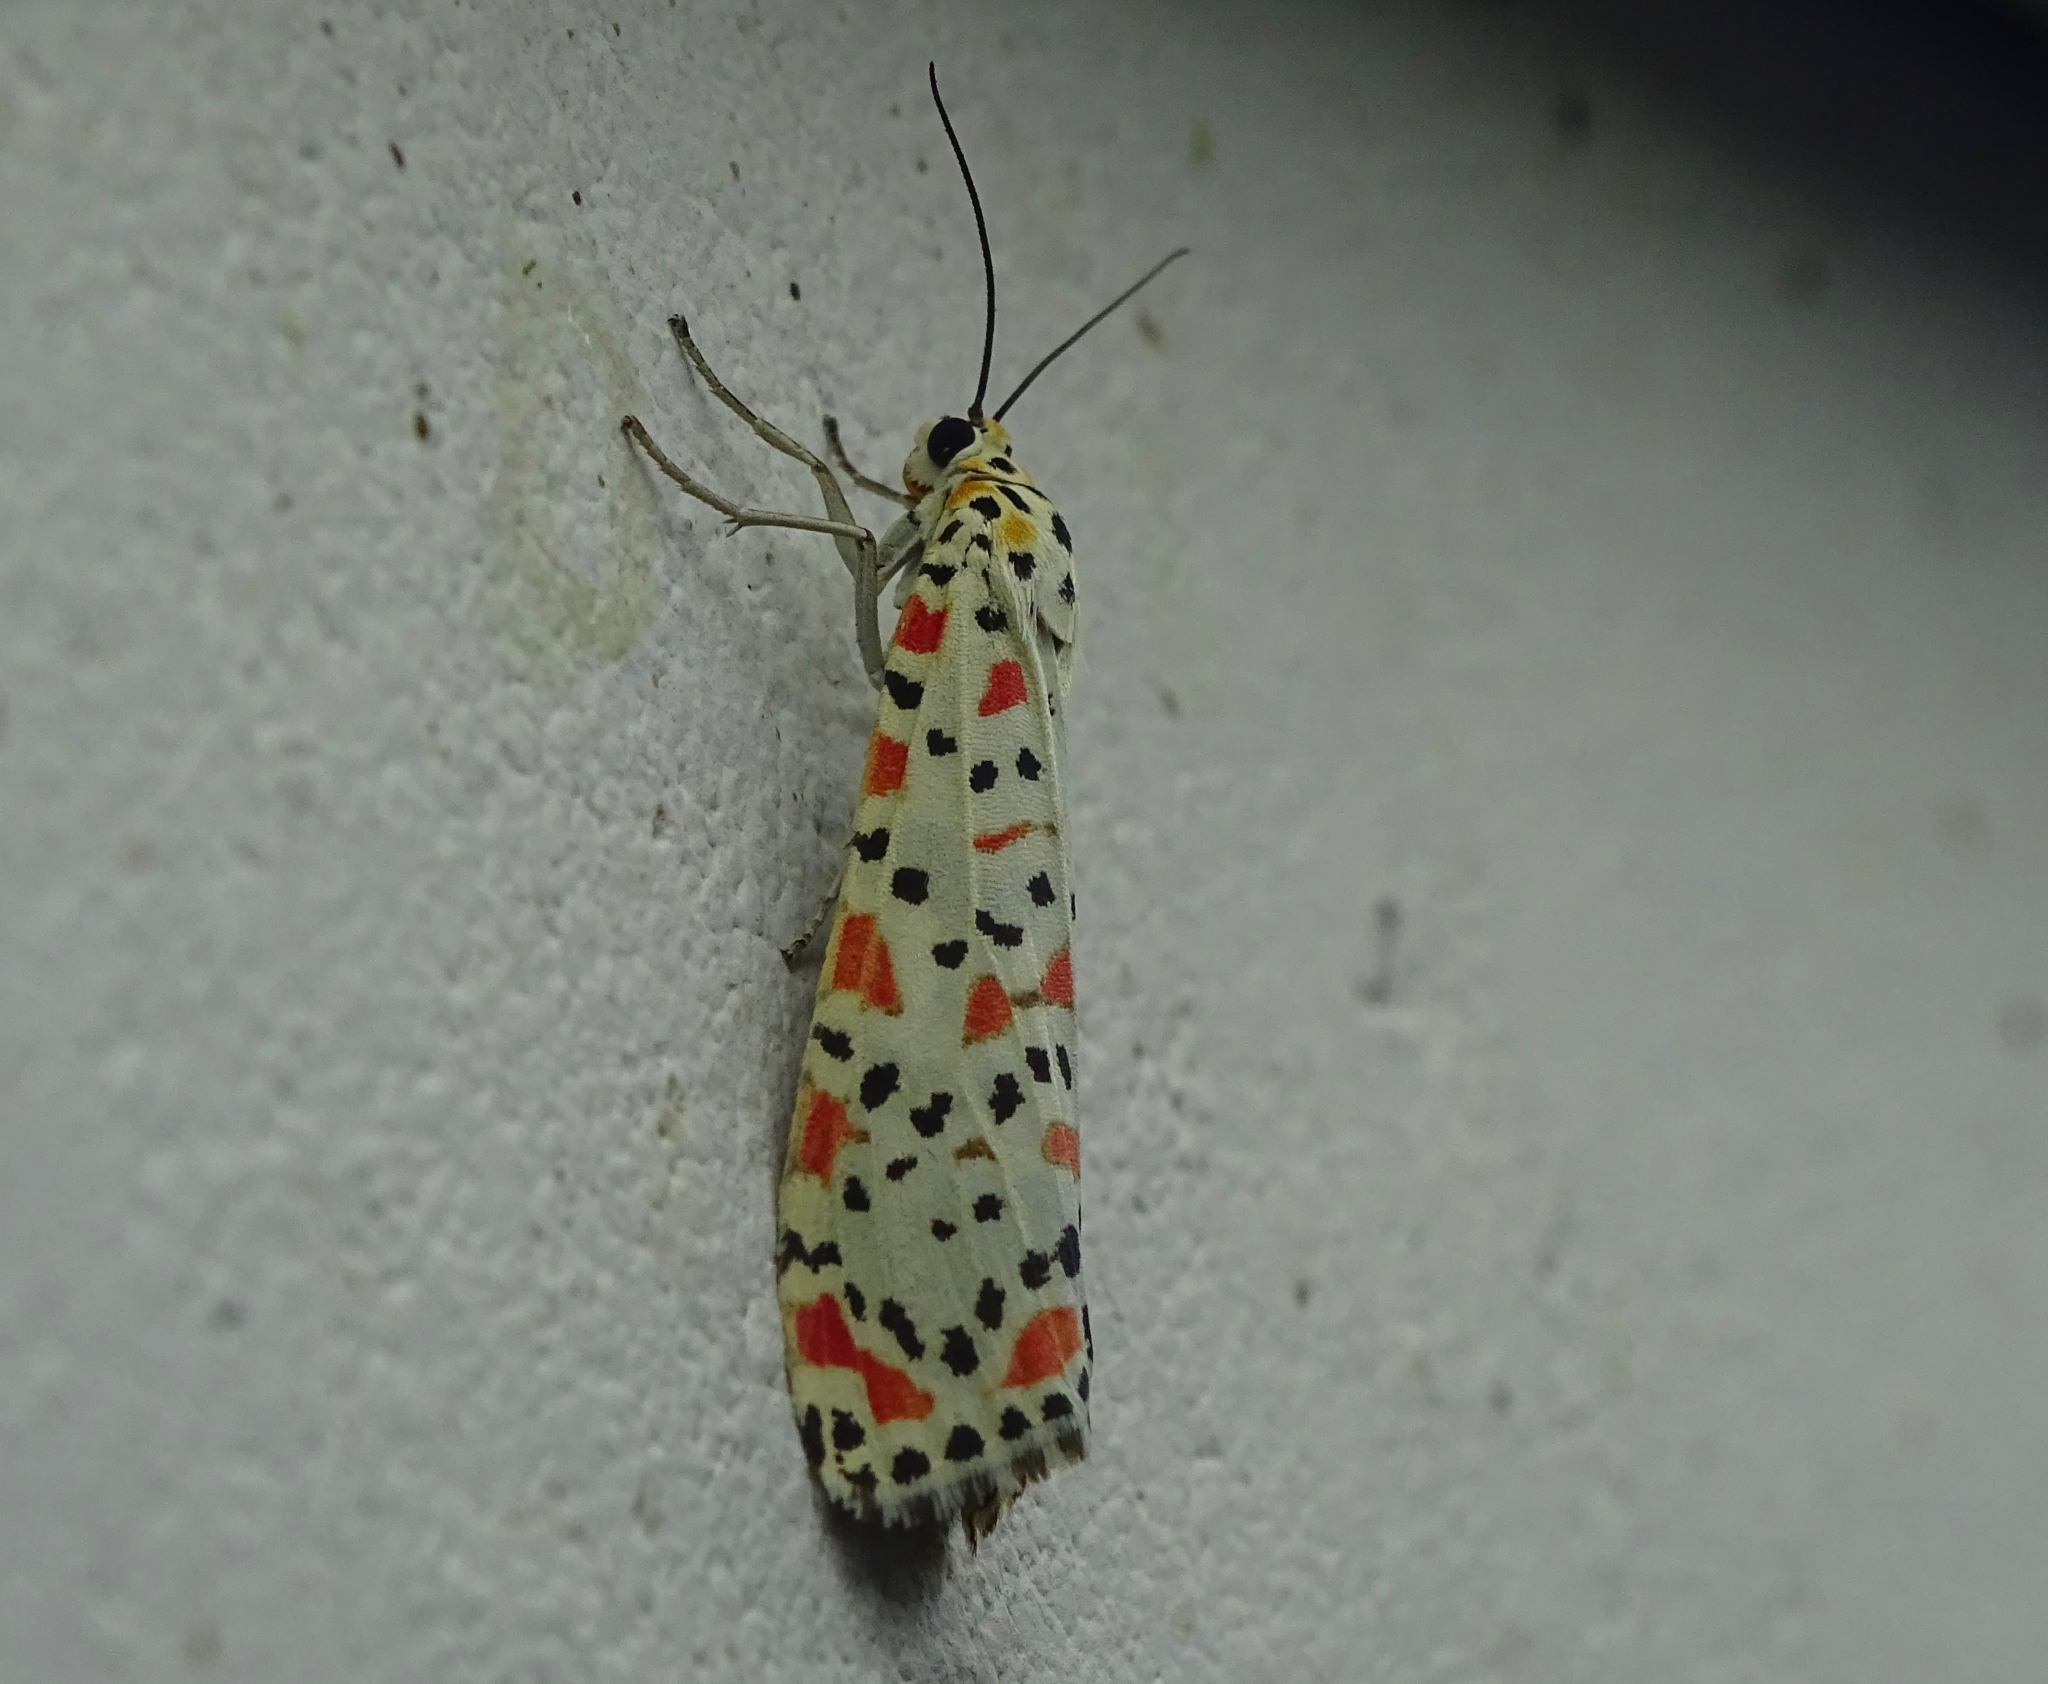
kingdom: Animalia
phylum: Arthropoda
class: Insecta
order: Lepidoptera
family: Erebidae
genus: Utetheisa
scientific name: Utetheisa lotrix
